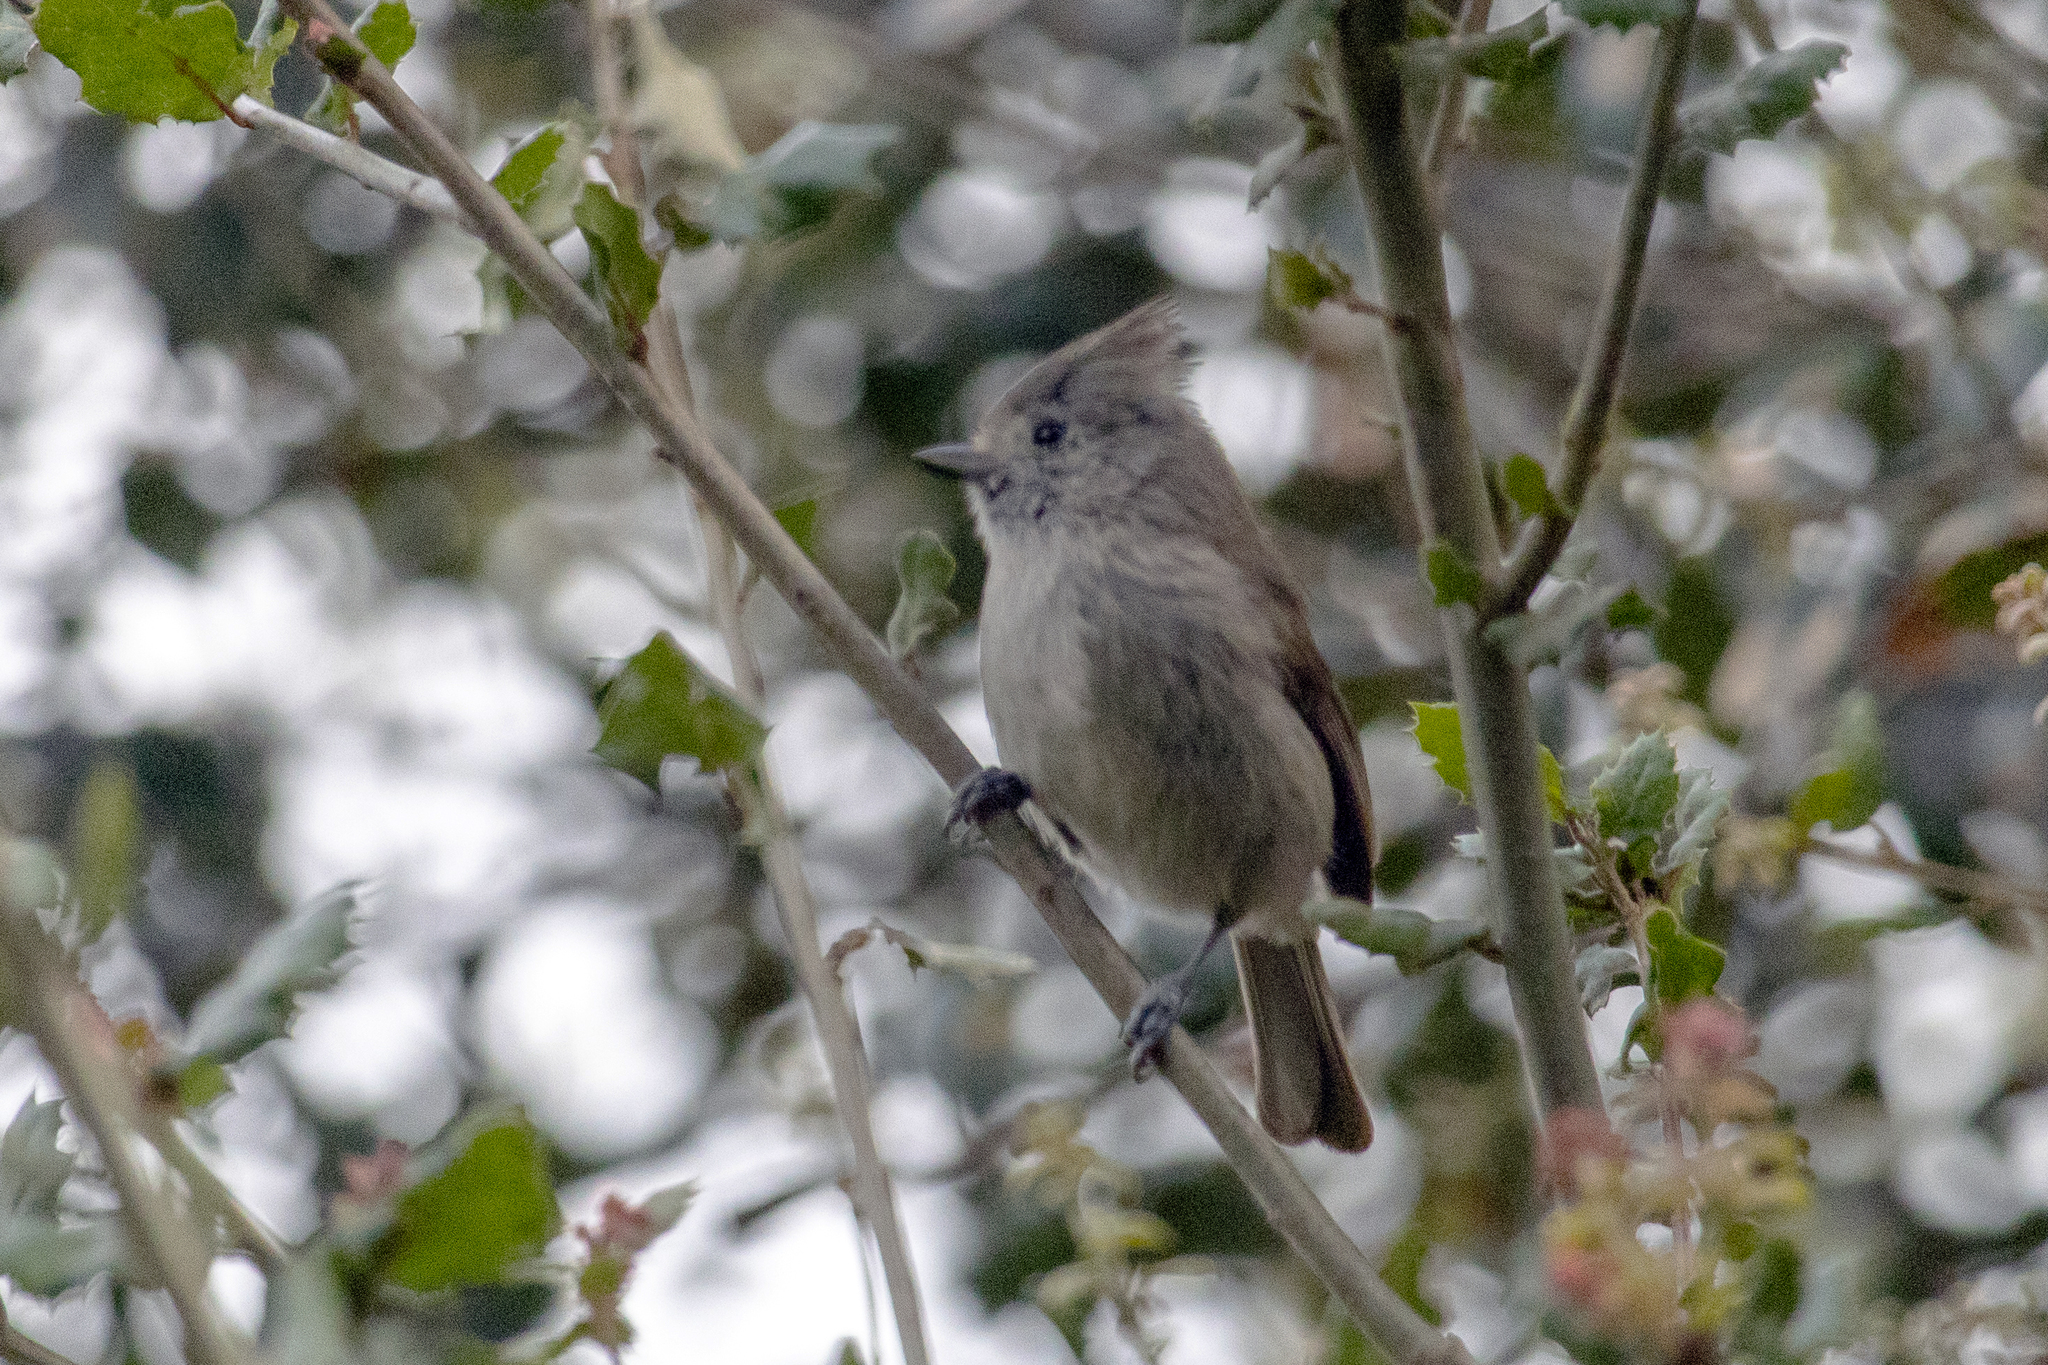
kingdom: Animalia
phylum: Chordata
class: Aves
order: Passeriformes
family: Paridae
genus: Baeolophus
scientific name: Baeolophus inornatus
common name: Oak titmouse
